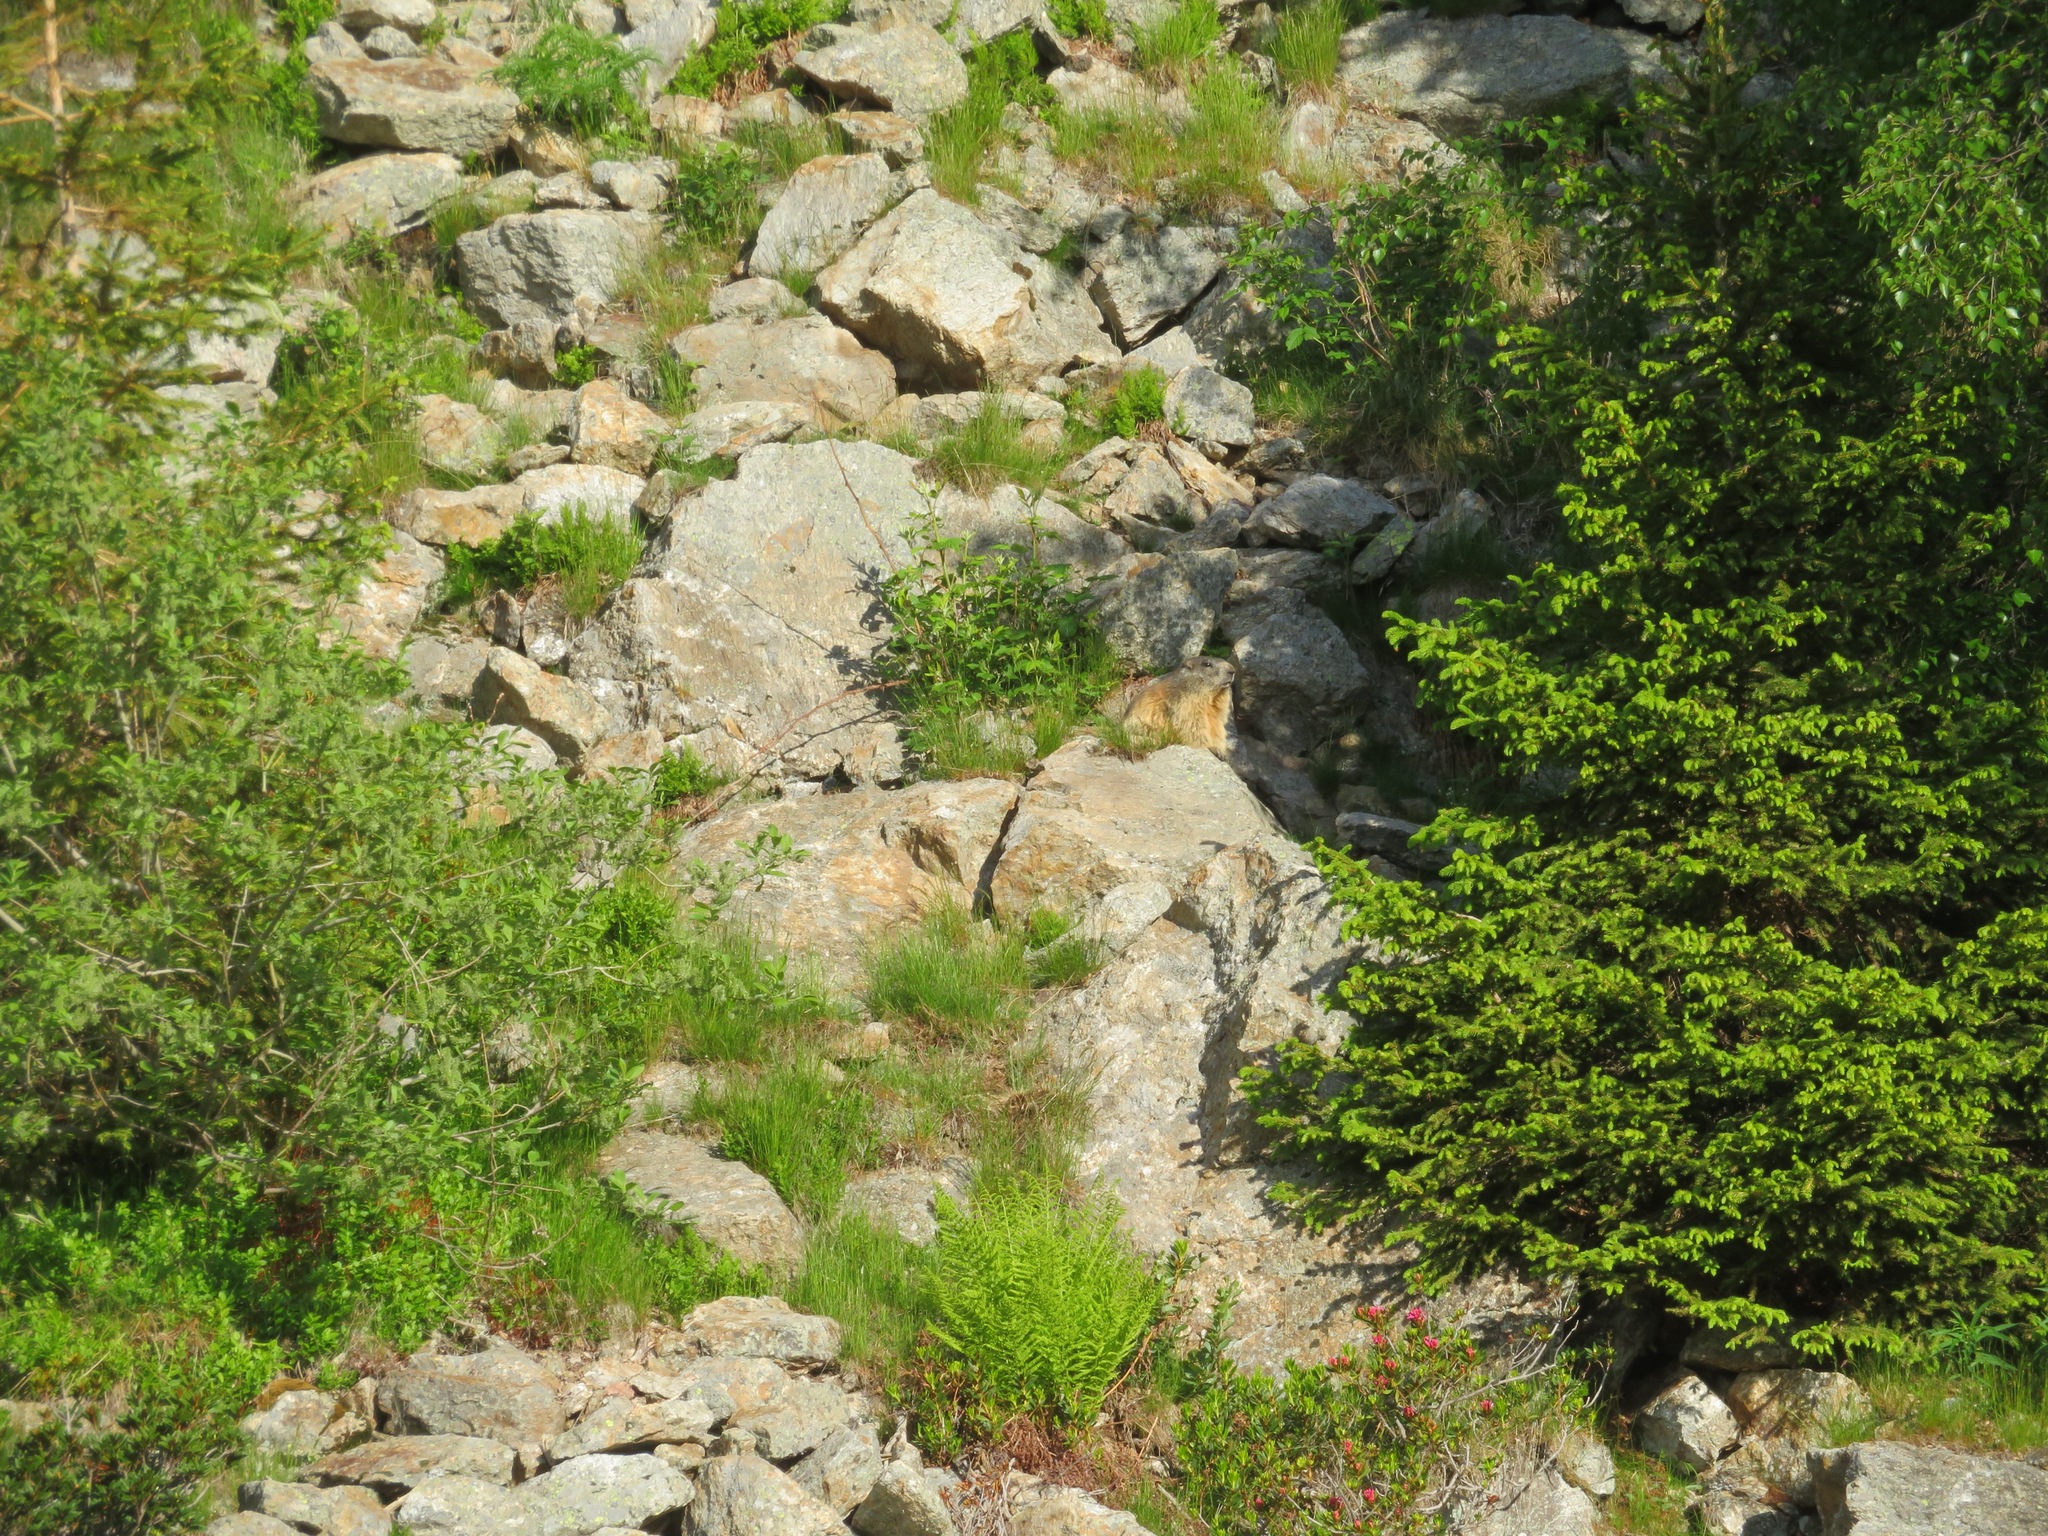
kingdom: Animalia
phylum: Chordata
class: Mammalia
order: Rodentia
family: Sciuridae
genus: Marmota
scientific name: Marmota marmota
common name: Alpine marmot
